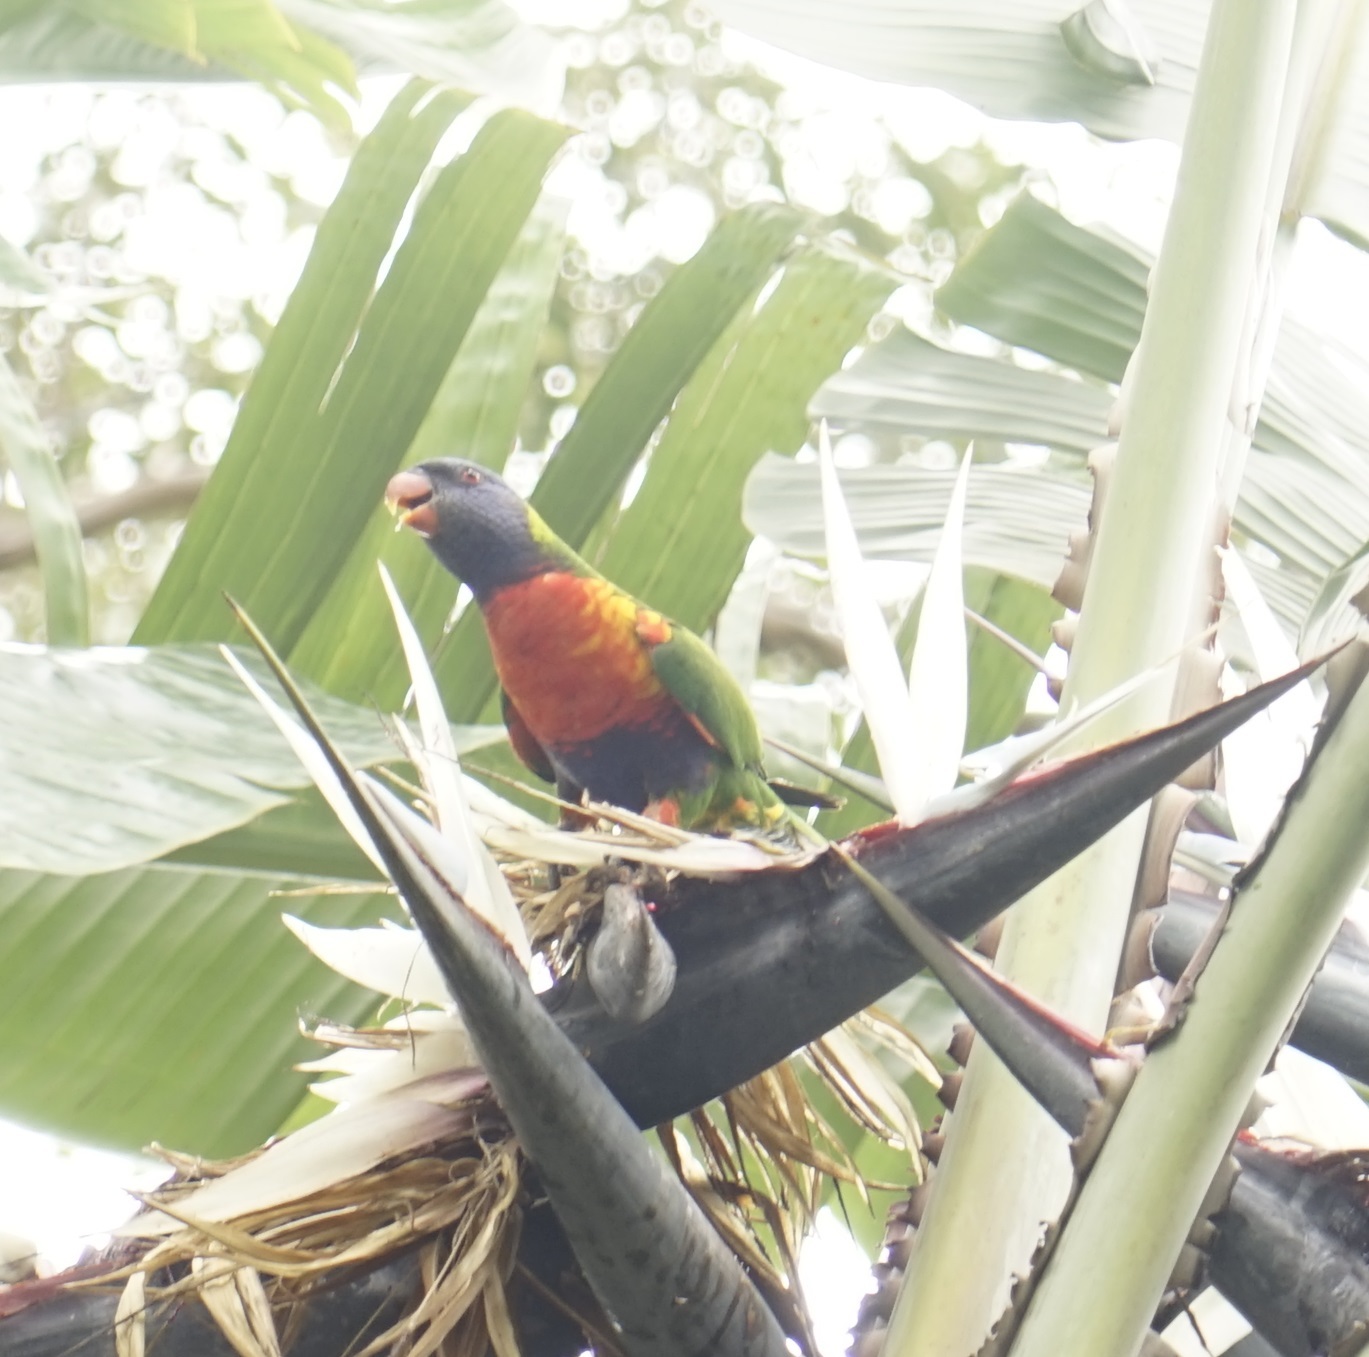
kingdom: Animalia
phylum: Chordata
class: Aves
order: Psittaciformes
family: Psittacidae
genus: Trichoglossus
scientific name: Trichoglossus haematodus
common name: Coconut lorikeet
